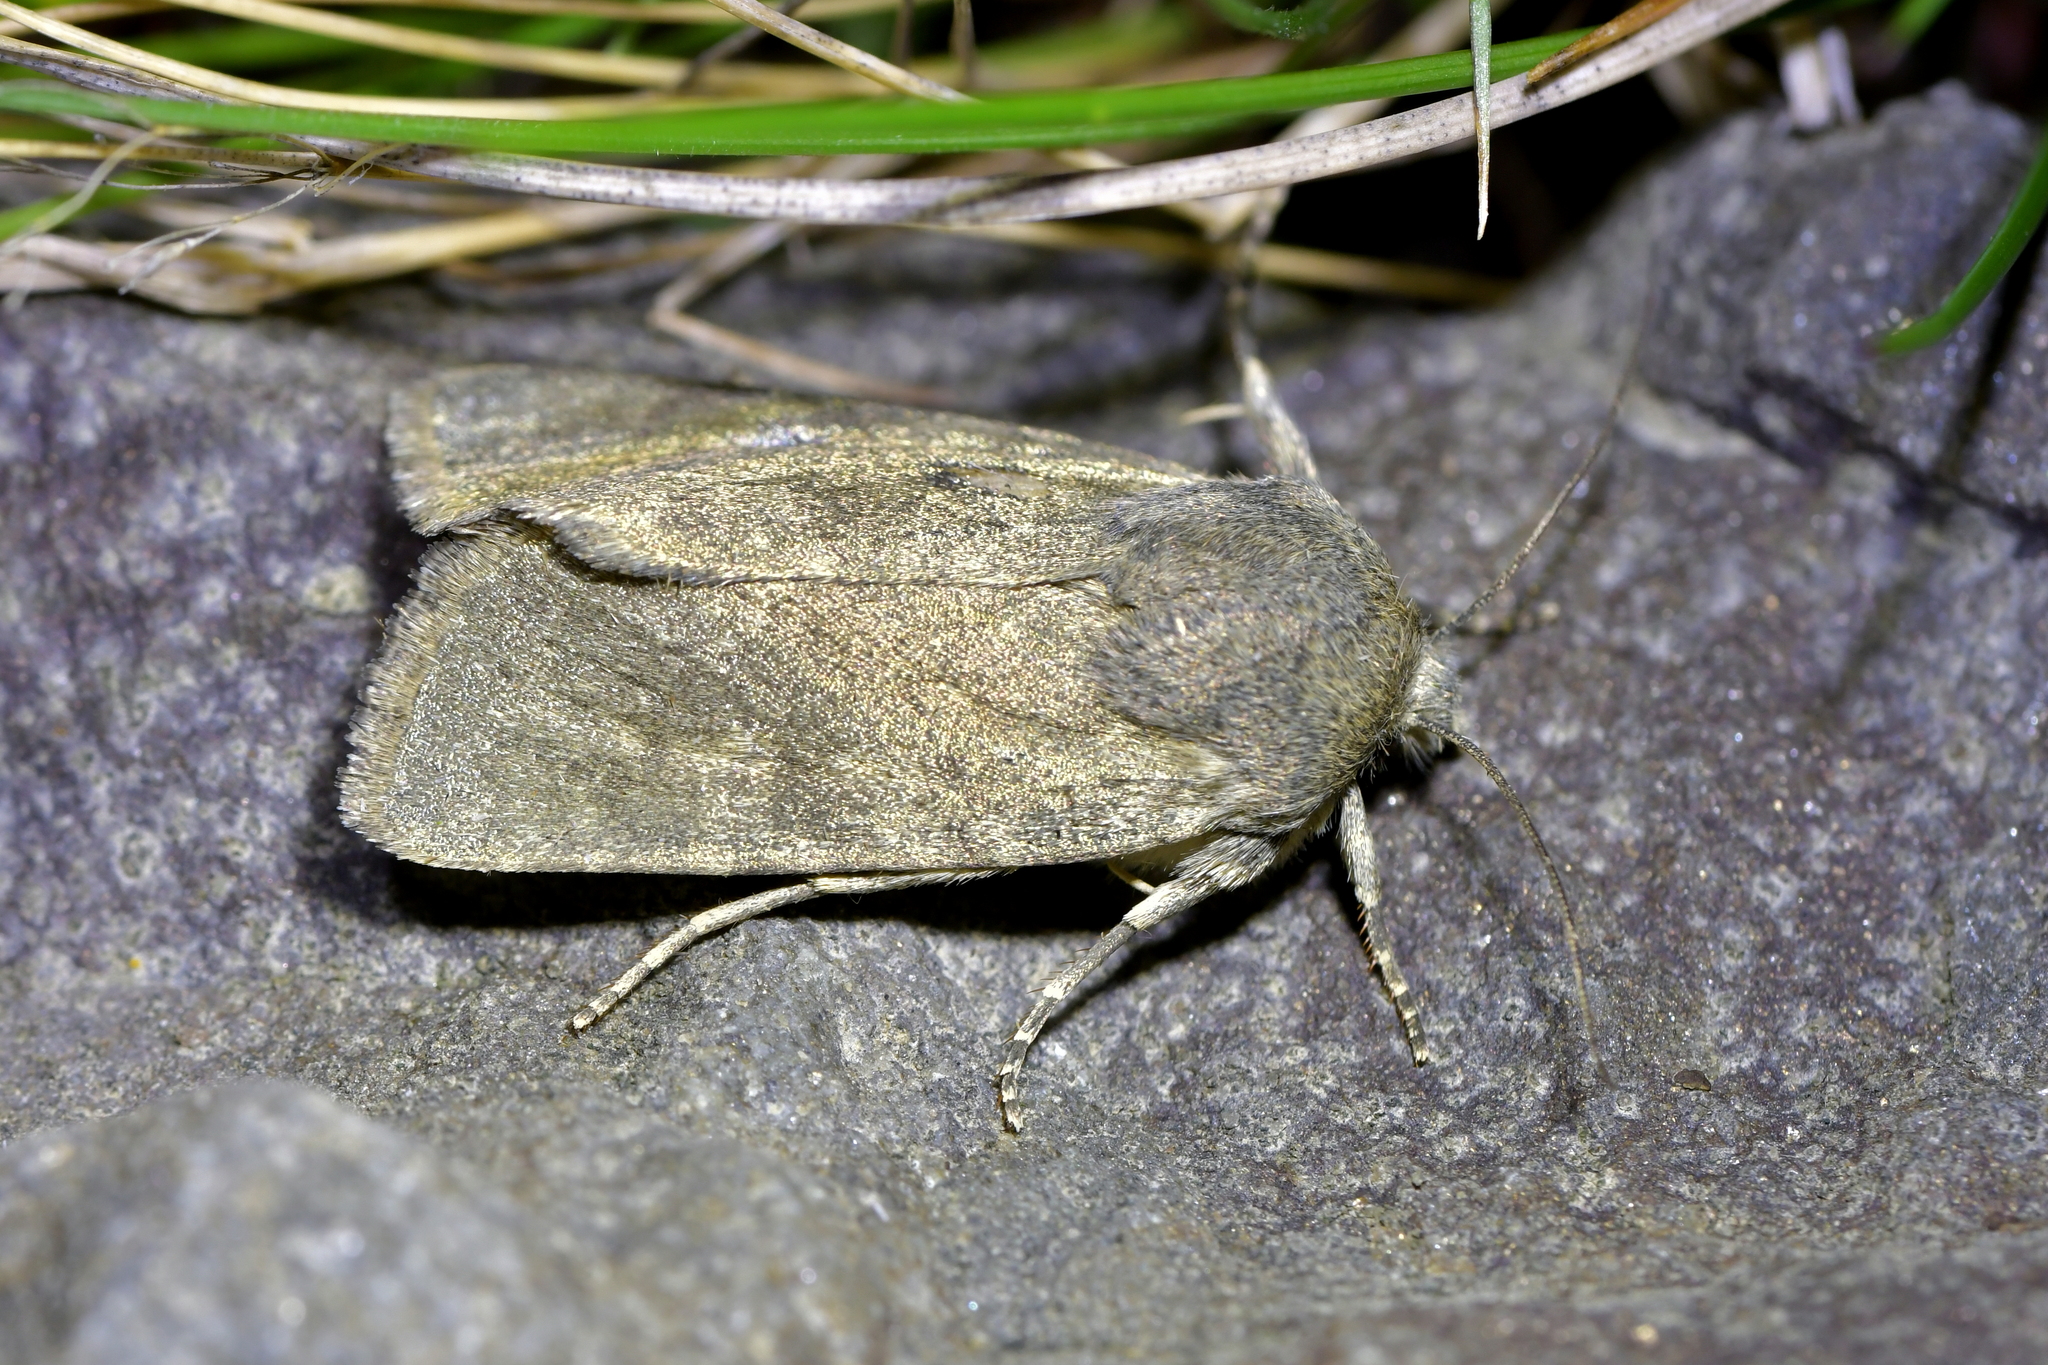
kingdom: Animalia
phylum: Arthropoda
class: Insecta
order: Lepidoptera
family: Noctuidae
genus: Physetica
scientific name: Physetica caerulea
